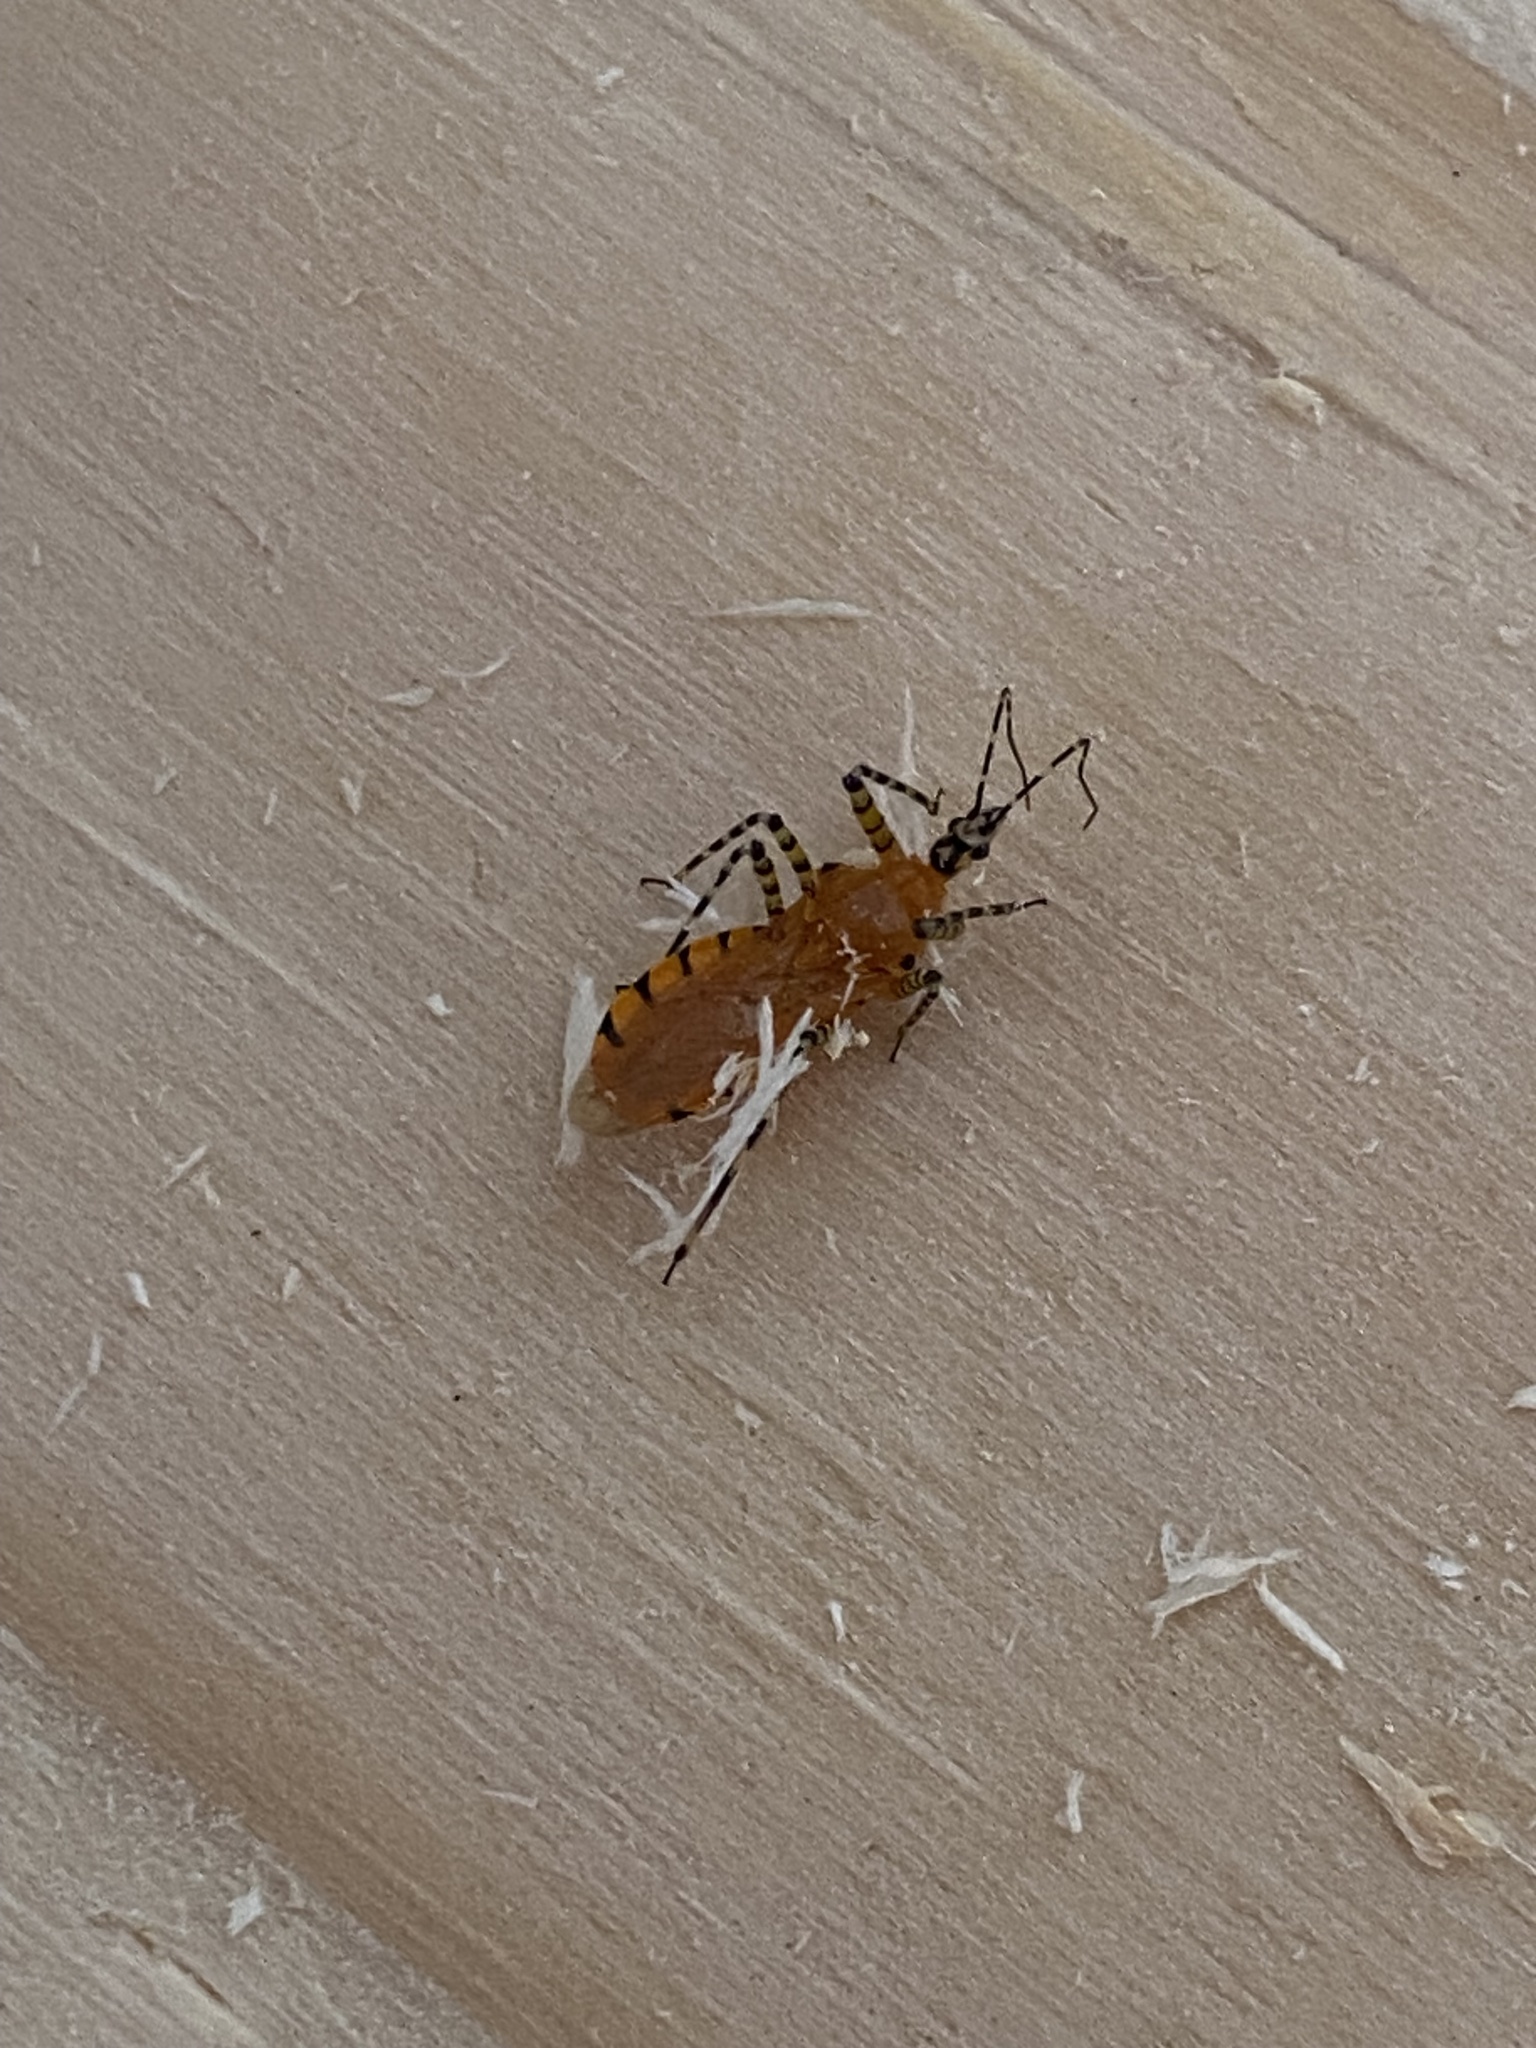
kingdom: Animalia
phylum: Arthropoda
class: Insecta
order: Hemiptera
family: Reduviidae
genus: Pselliopus
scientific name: Pselliopus barberi
